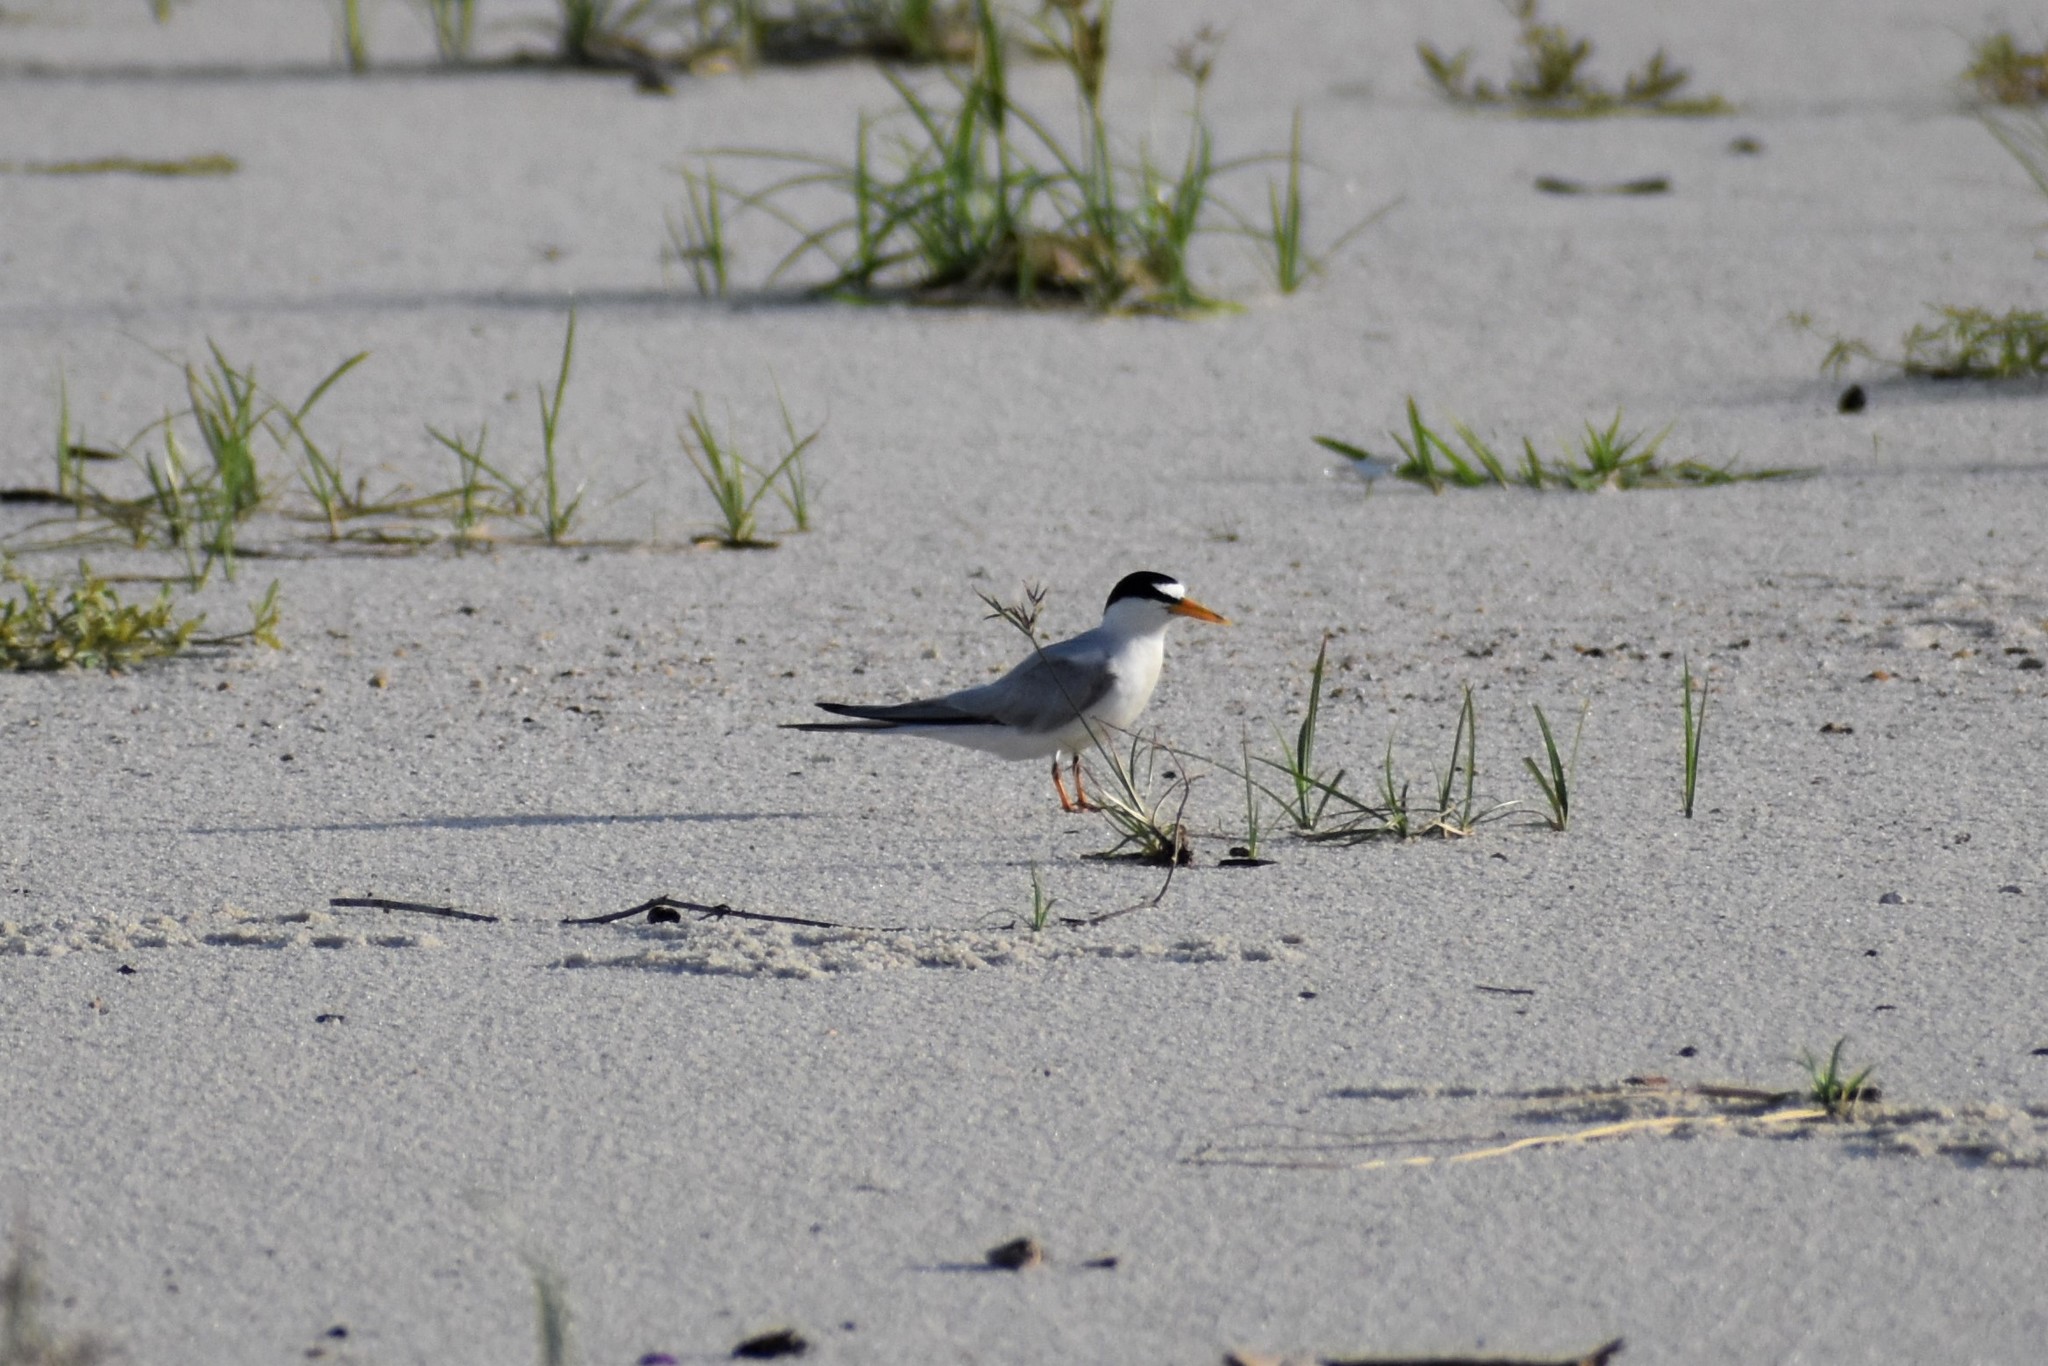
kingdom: Animalia
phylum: Chordata
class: Aves
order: Charadriiformes
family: Laridae
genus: Sternula
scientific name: Sternula antillarum
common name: Least tern
